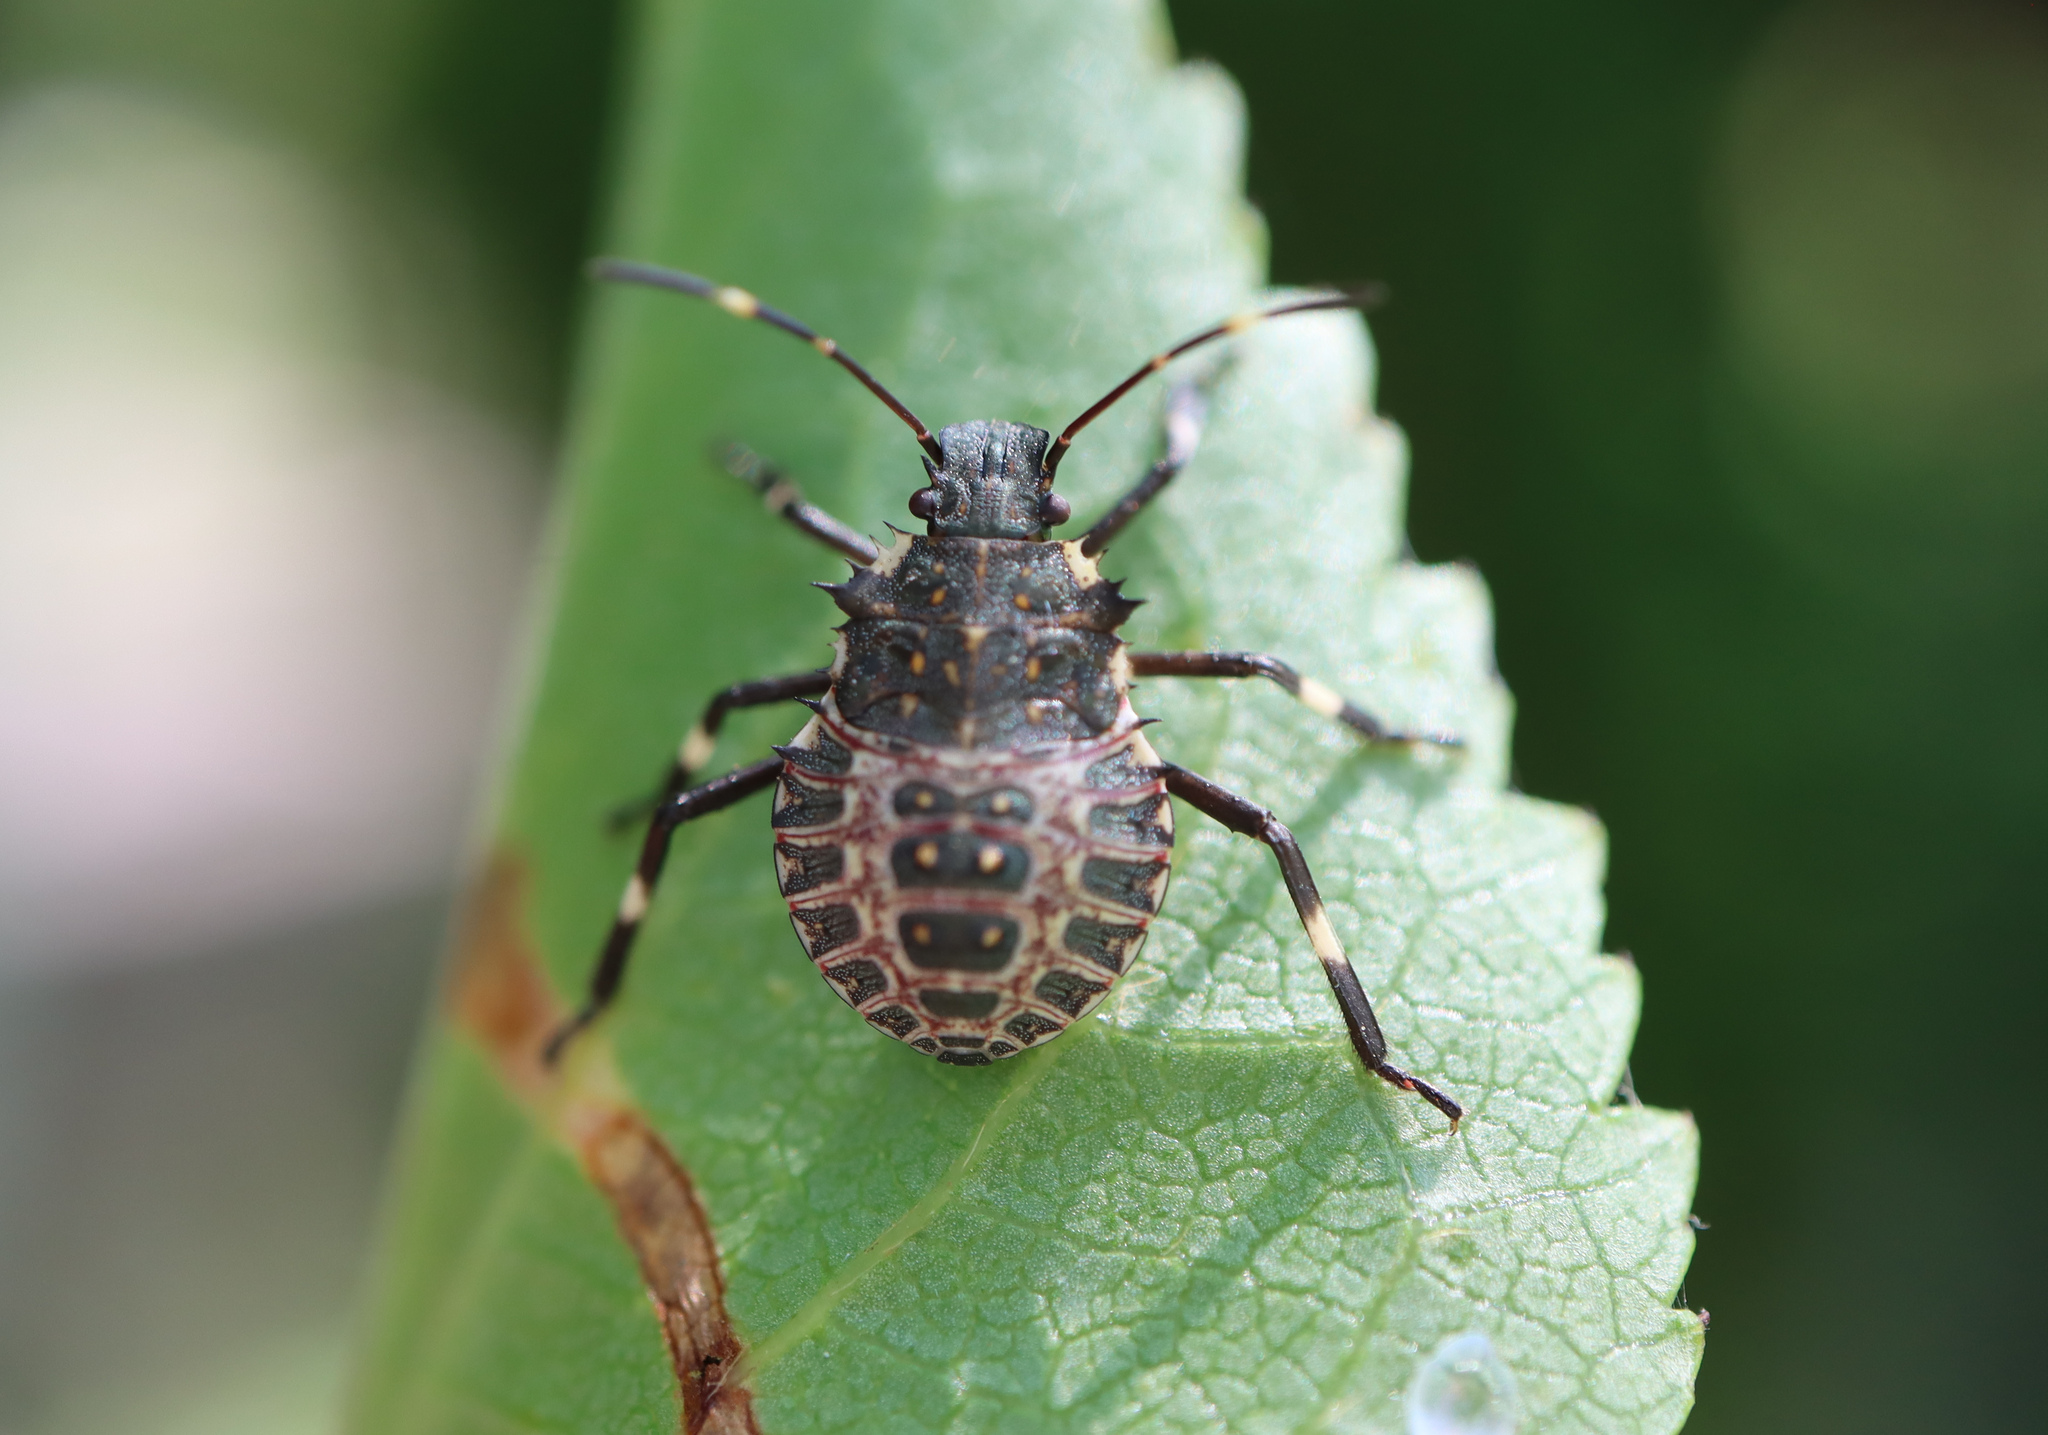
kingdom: Animalia
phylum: Arthropoda
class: Insecta
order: Hemiptera
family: Pentatomidae
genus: Halyomorpha
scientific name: Halyomorpha halys
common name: Brown marmorated stink bug
